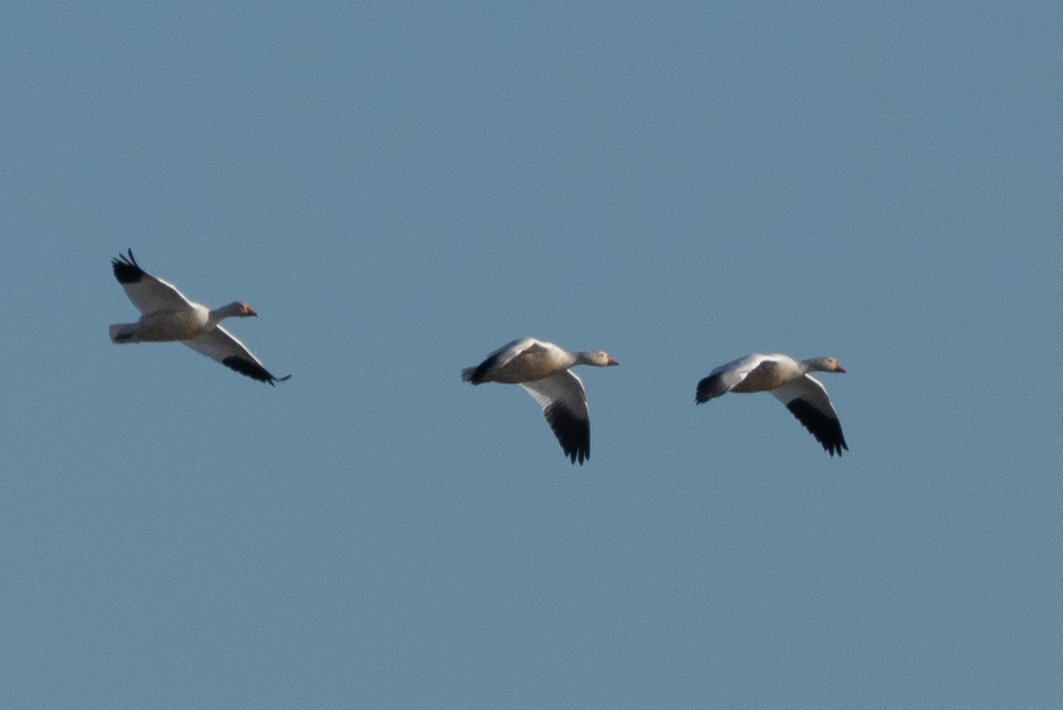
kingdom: Animalia
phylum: Chordata
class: Aves
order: Anseriformes
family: Anatidae
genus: Anser
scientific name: Anser caerulescens
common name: Snow goose
